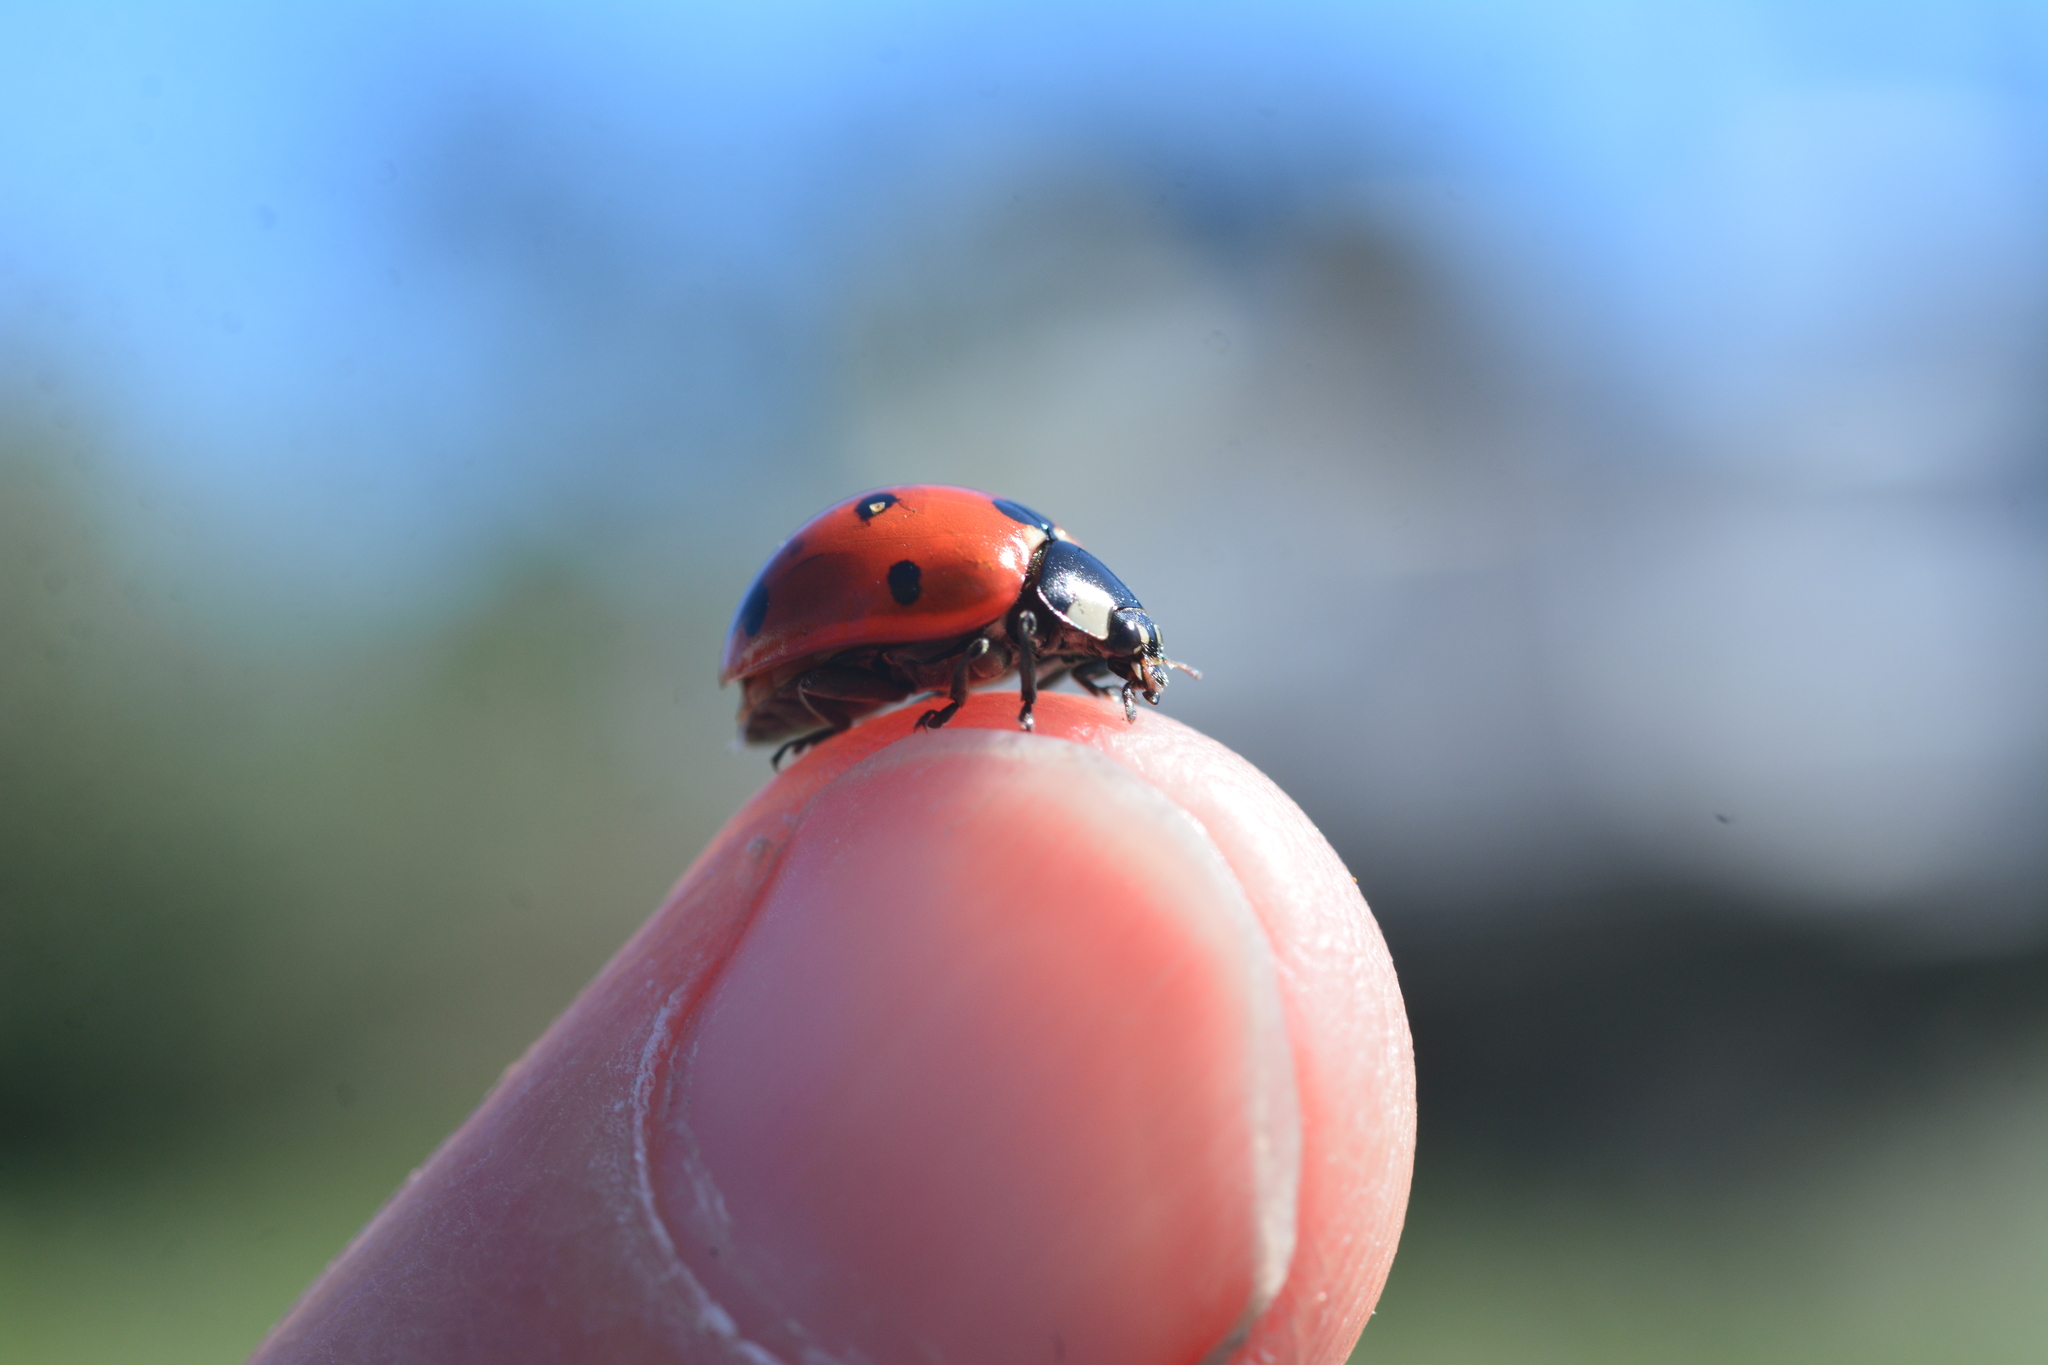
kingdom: Animalia
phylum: Arthropoda
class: Insecta
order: Coleoptera
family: Coccinellidae
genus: Coccinella
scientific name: Coccinella septempunctata
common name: Sevenspotted lady beetle
